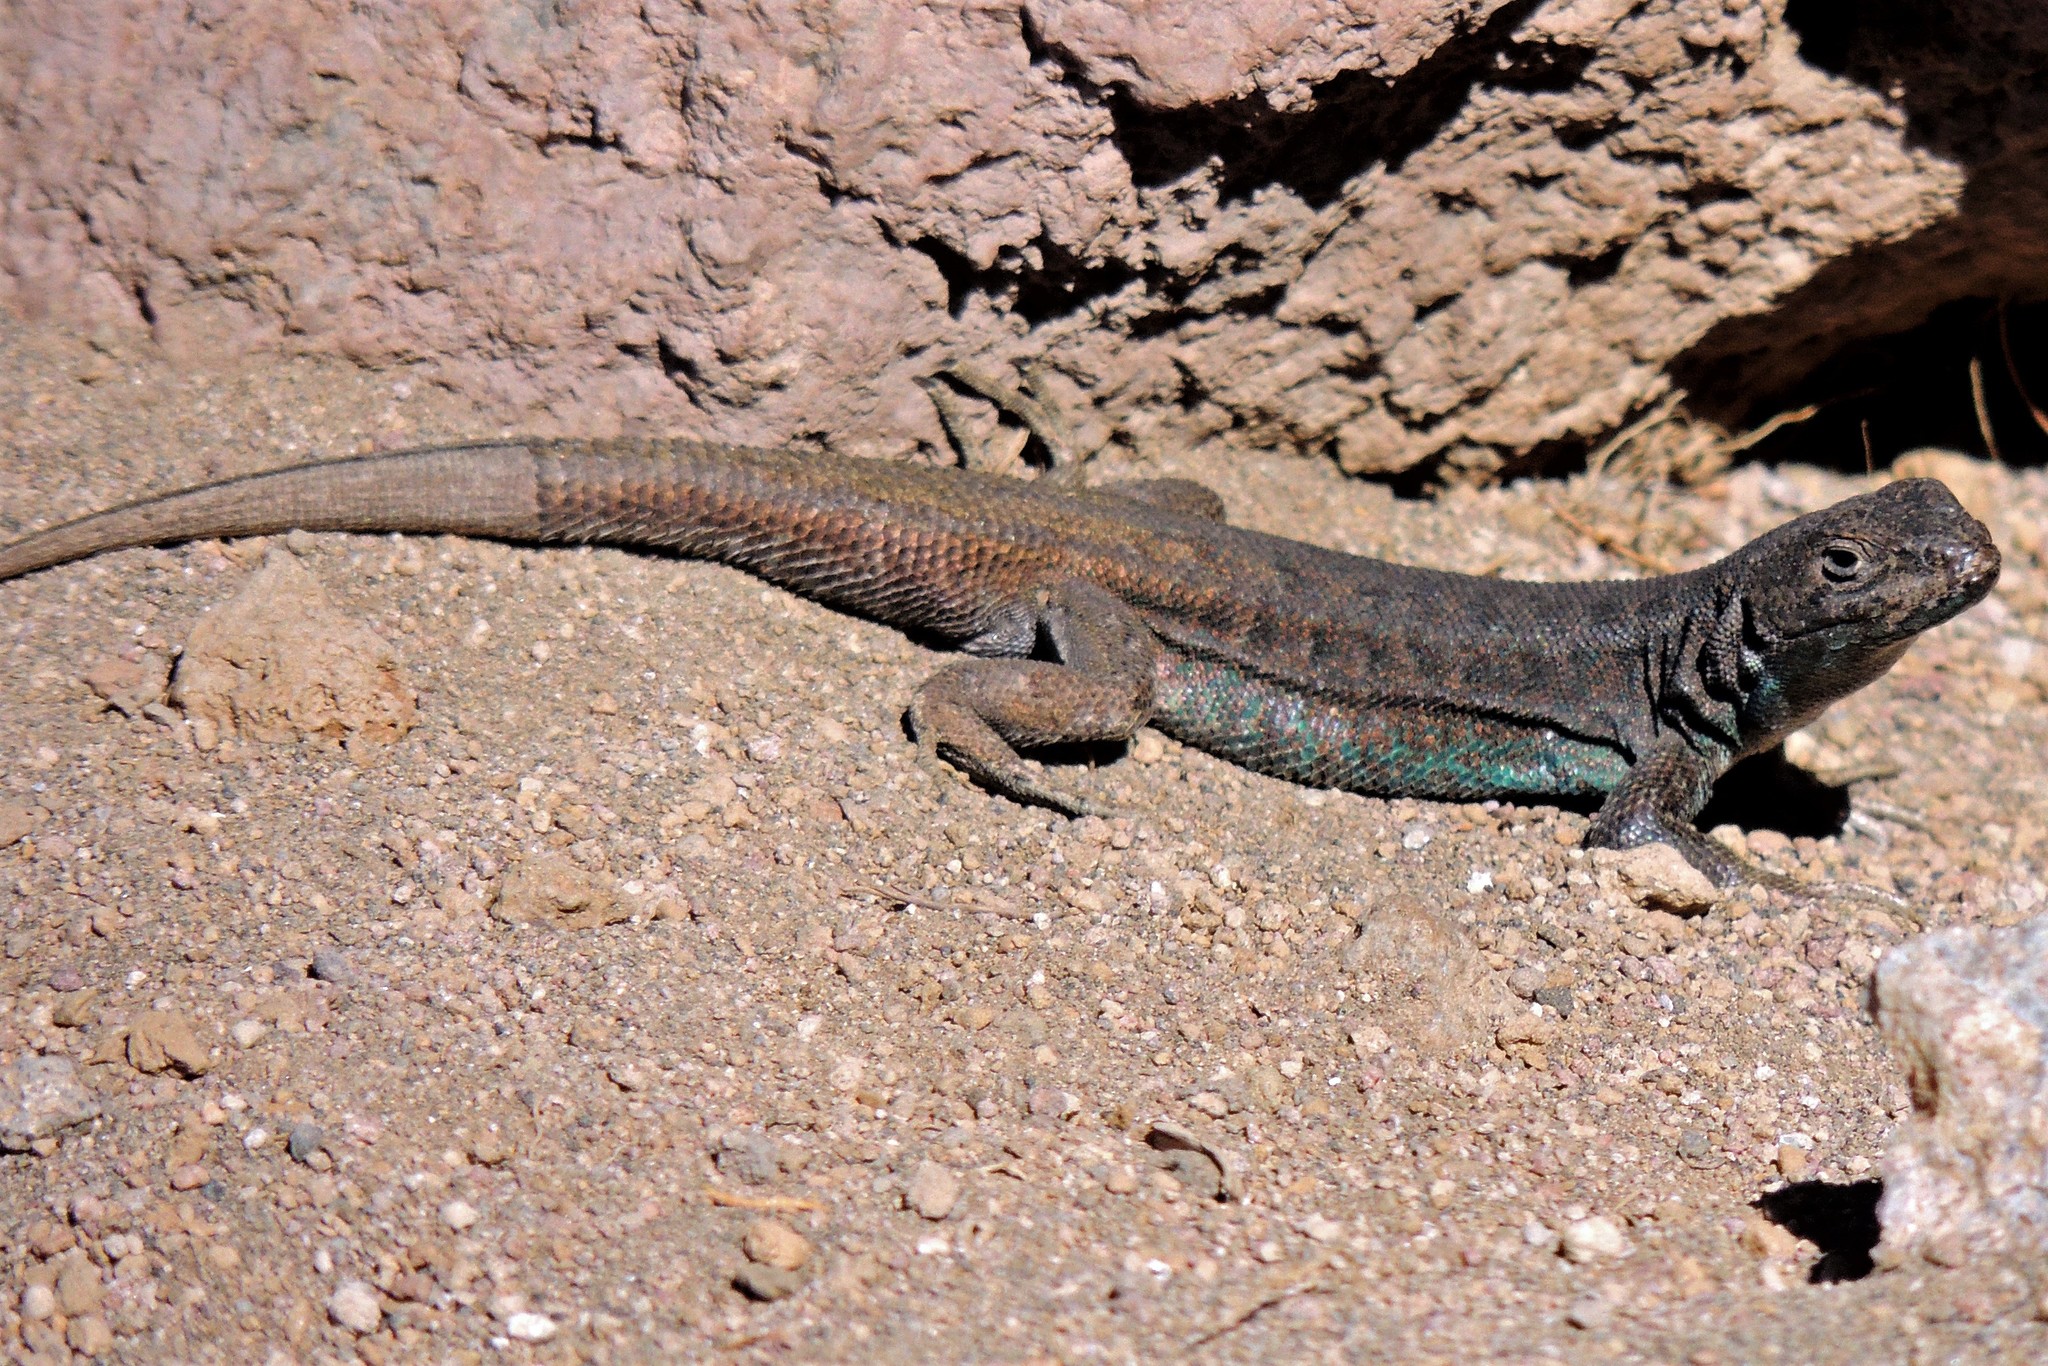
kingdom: Animalia
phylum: Chordata
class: Squamata
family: Liolaemidae
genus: Liolaemus
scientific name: Liolaemus coeruleus
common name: Blue tree iguana
